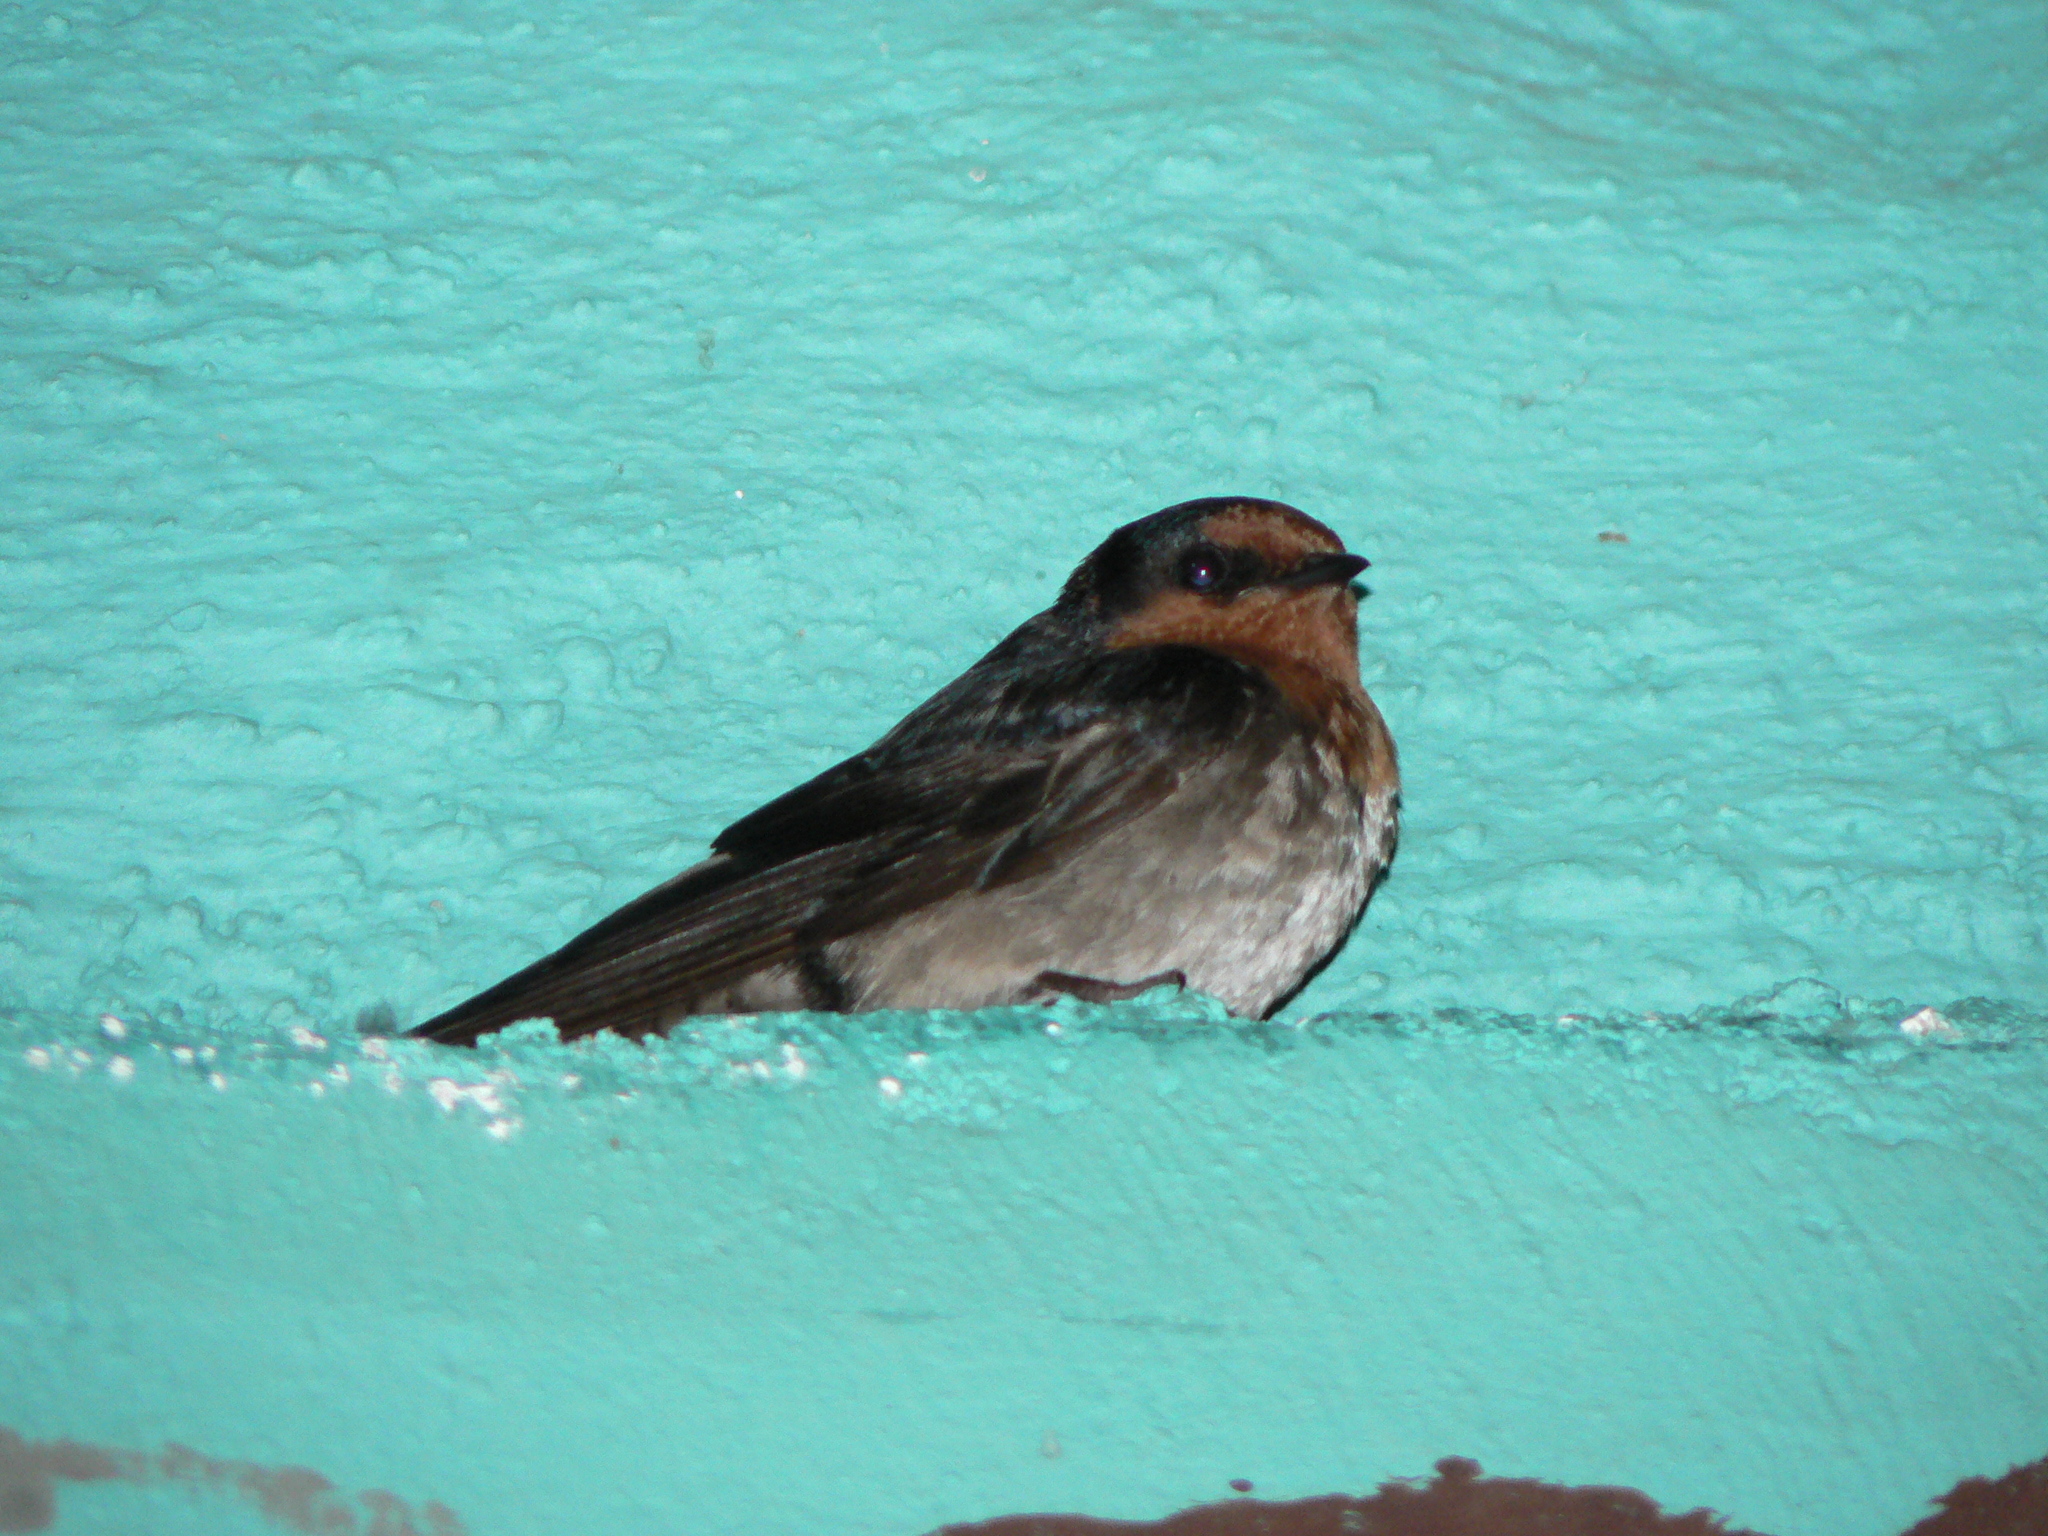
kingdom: Animalia
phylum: Chordata
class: Aves
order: Passeriformes
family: Hirundinidae
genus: Hirundo
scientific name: Hirundo domicola
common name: Hill swallow
